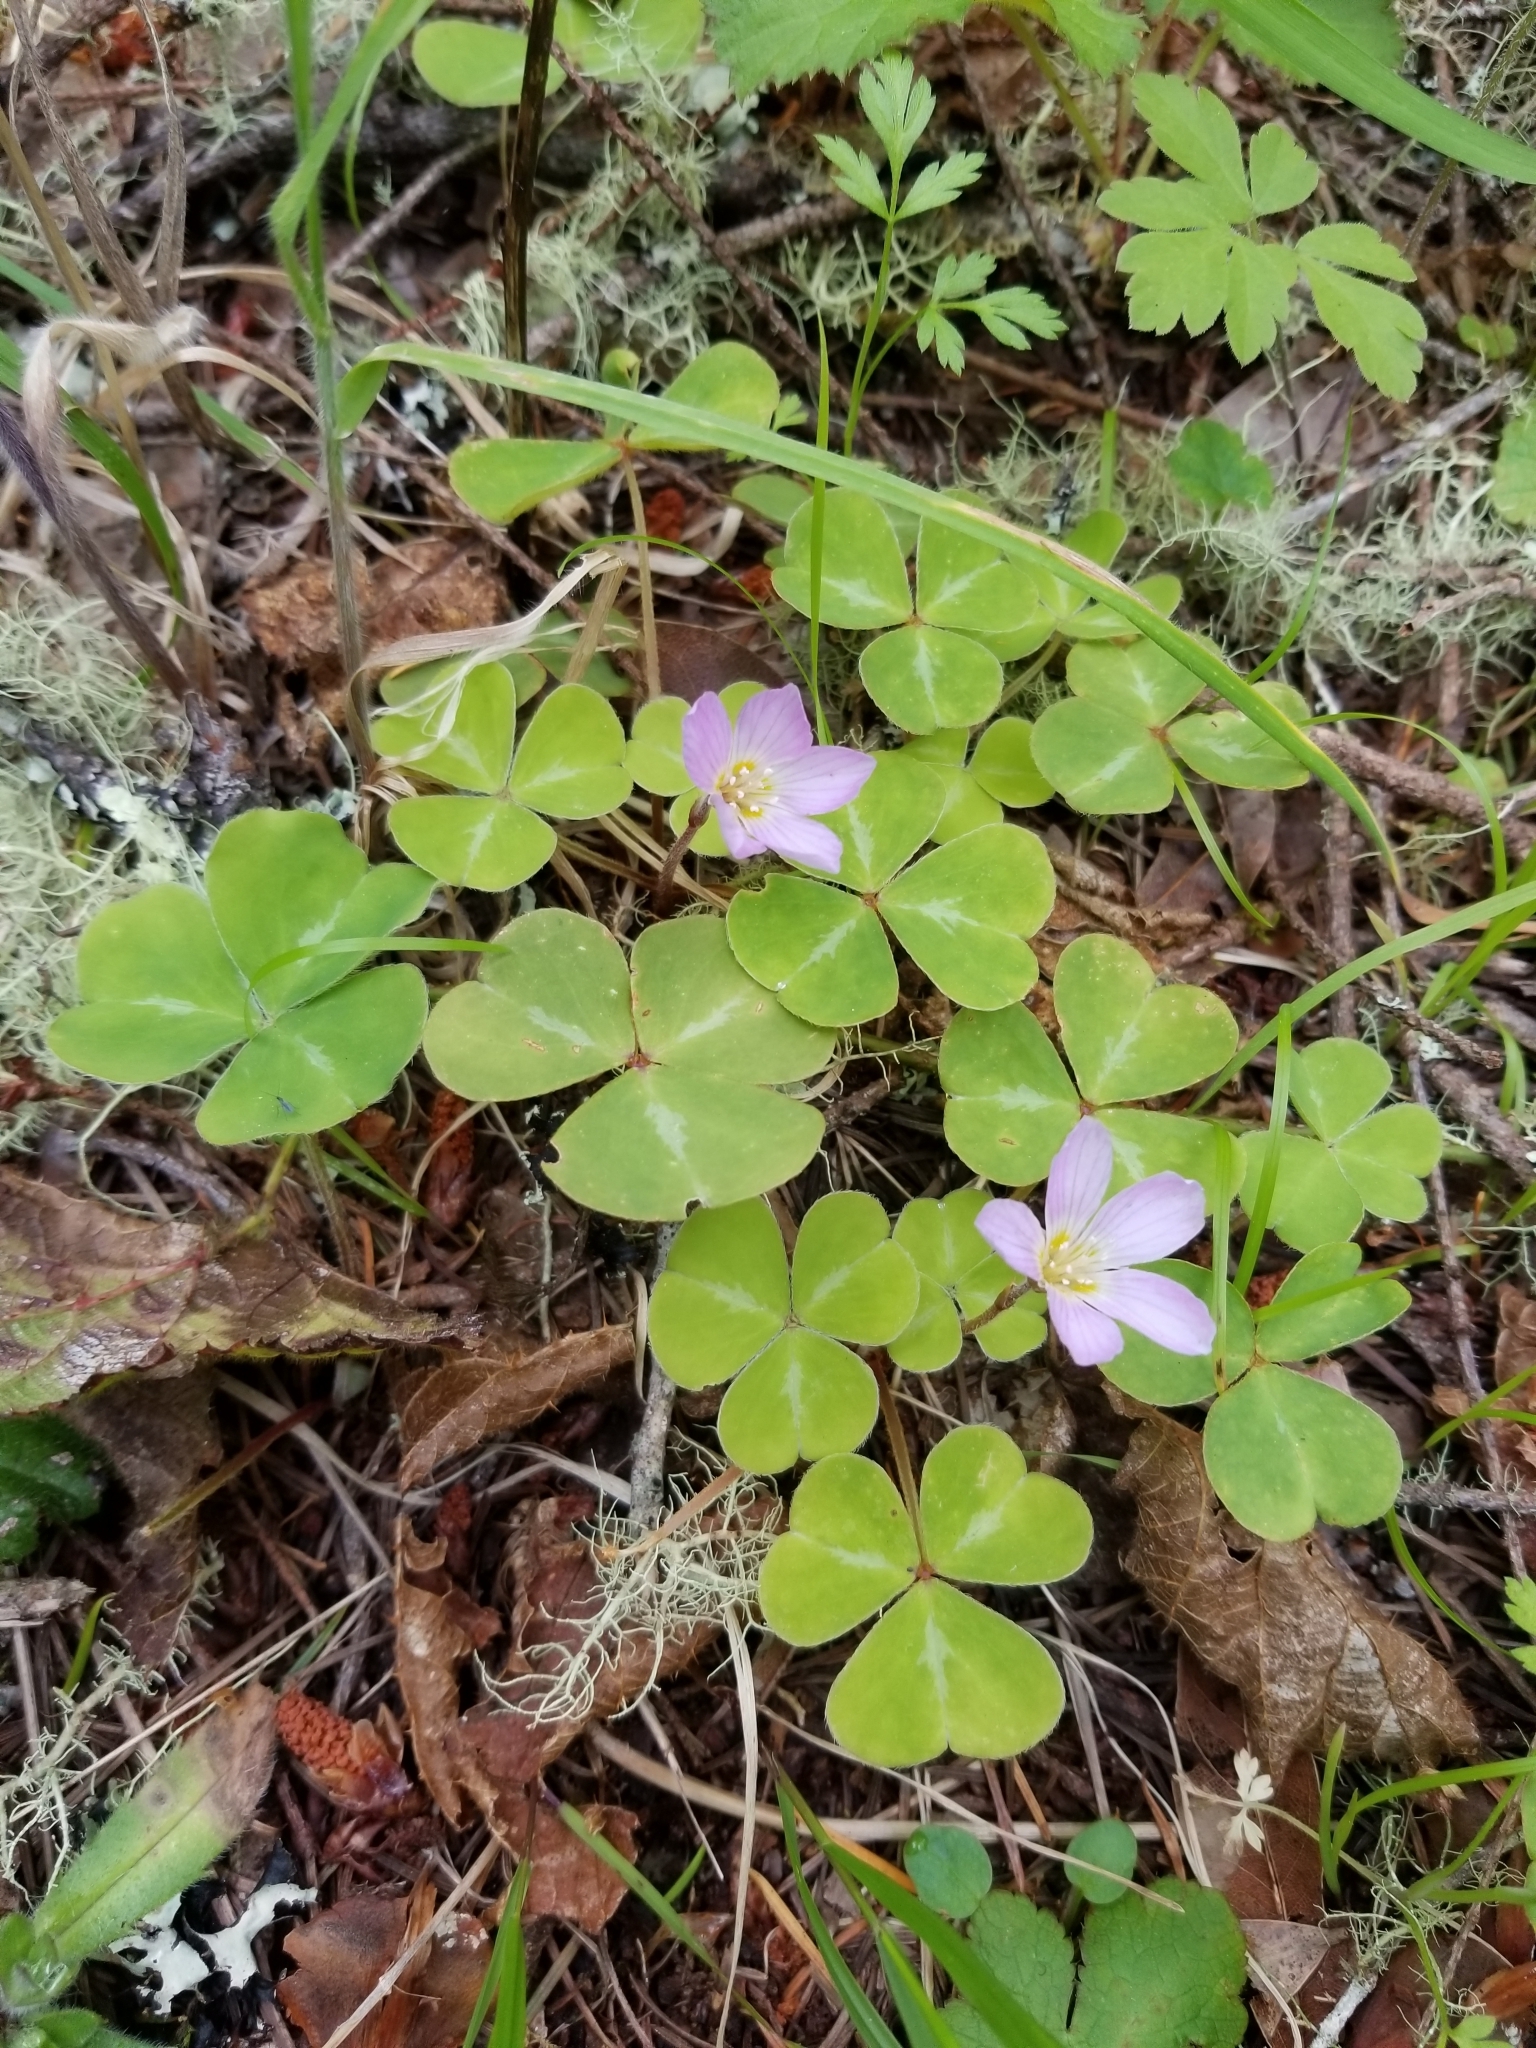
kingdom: Plantae
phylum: Tracheophyta
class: Magnoliopsida
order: Oxalidales
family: Oxalidaceae
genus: Oxalis
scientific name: Oxalis oregana
